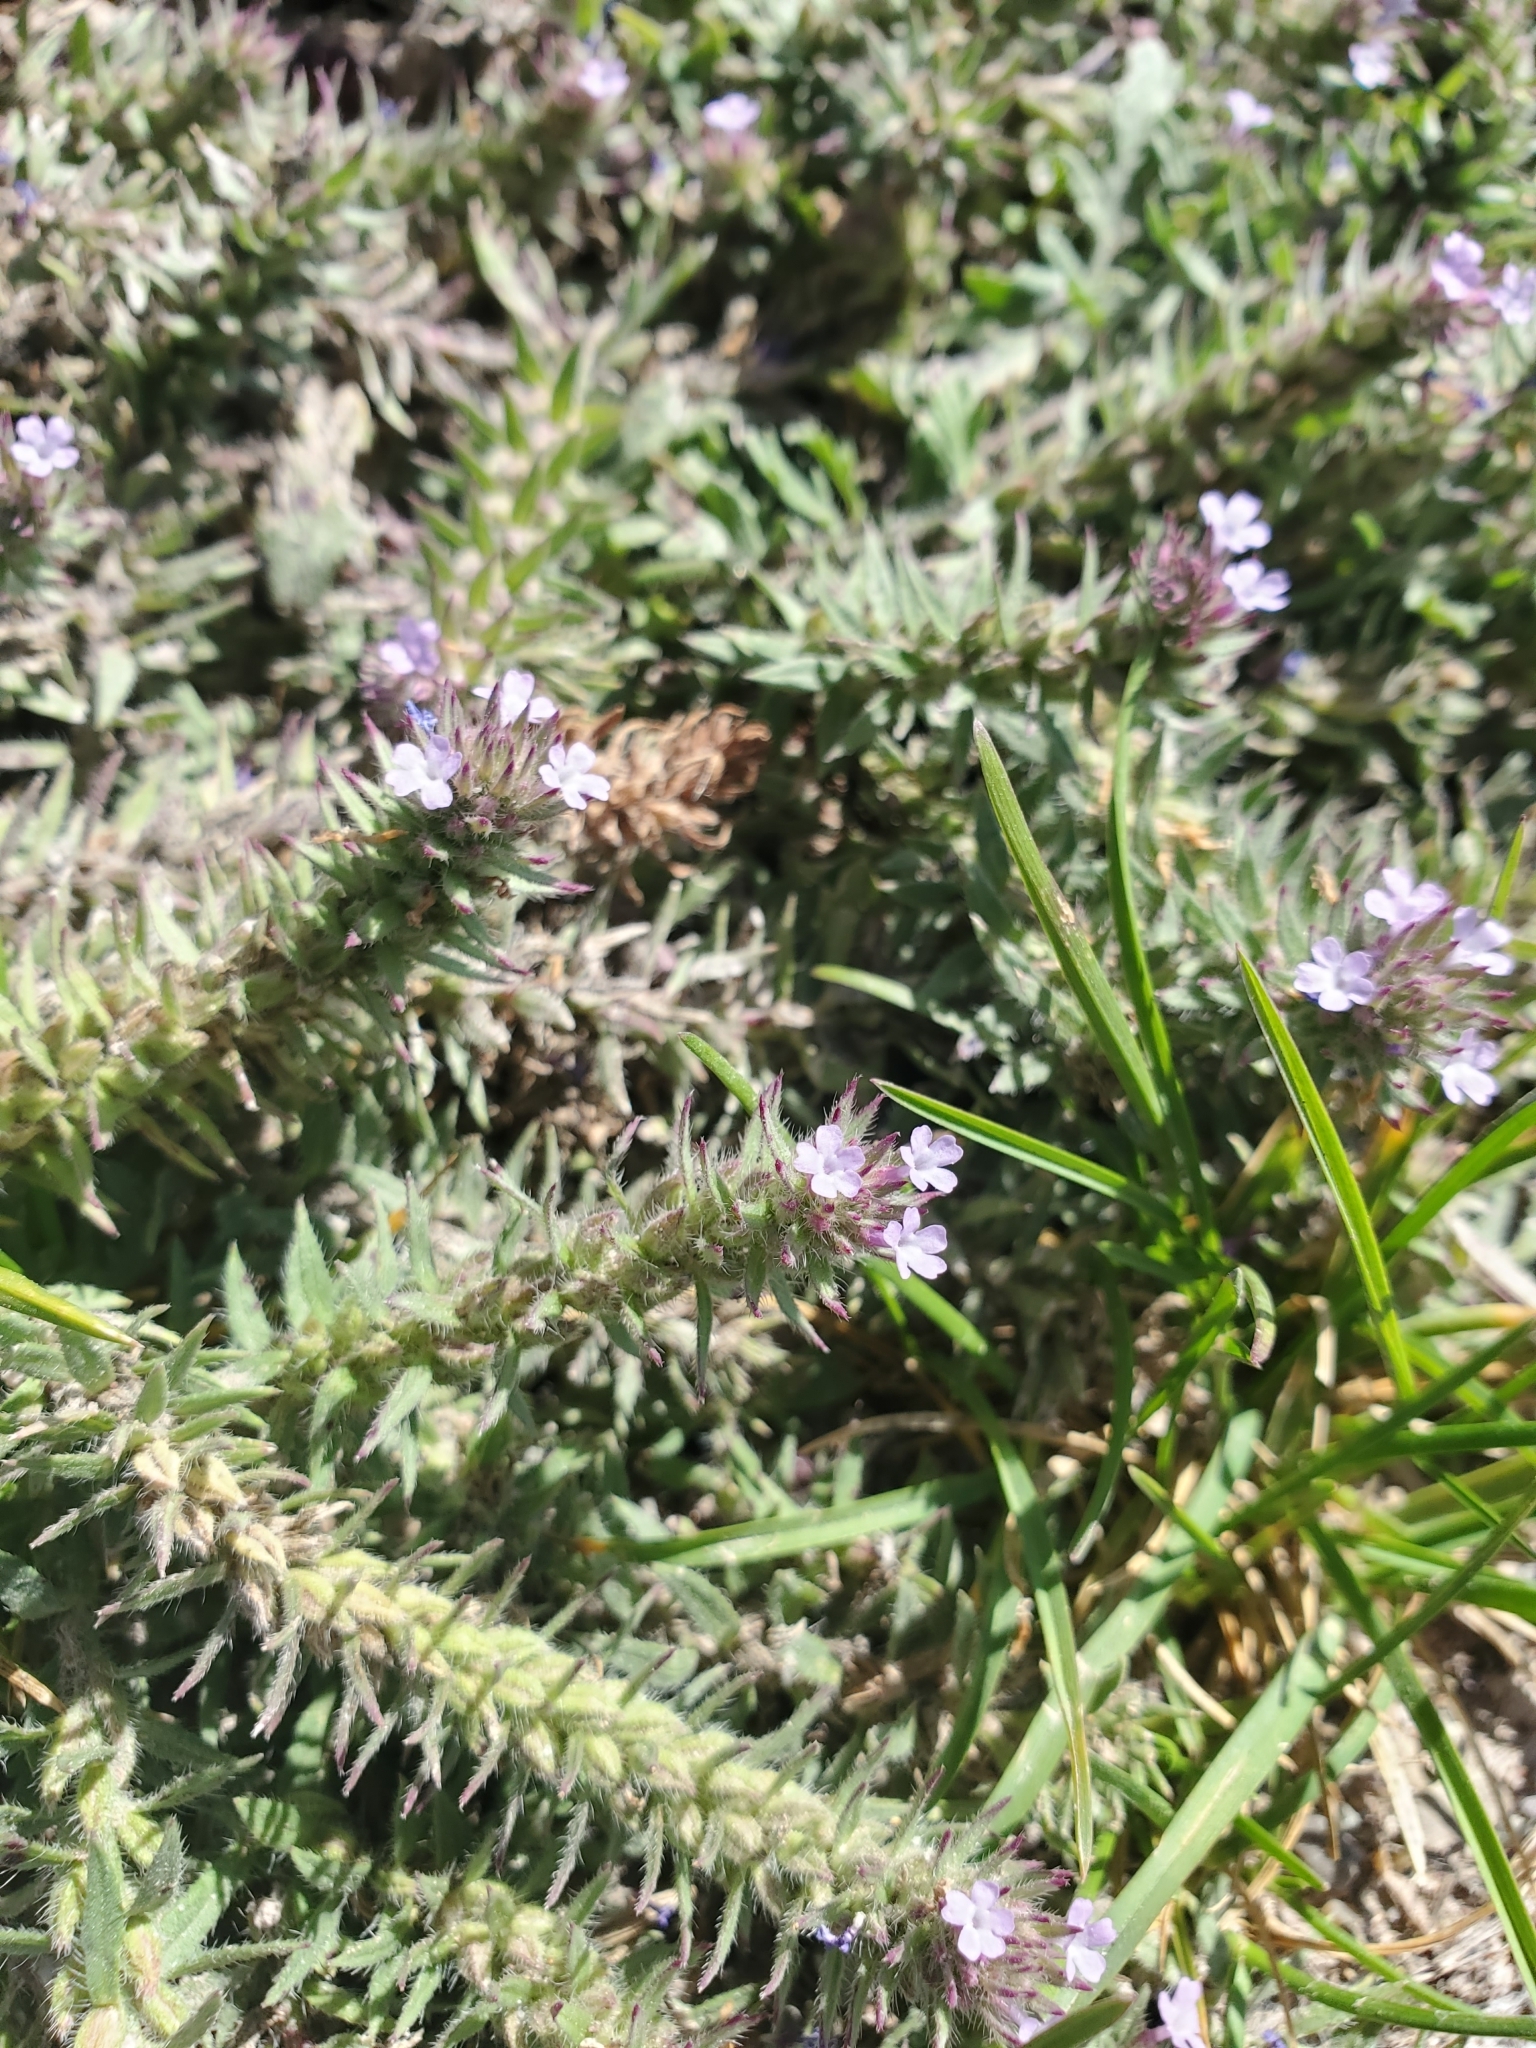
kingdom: Plantae
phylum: Tracheophyta
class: Magnoliopsida
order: Lamiales
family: Verbenaceae
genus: Verbena
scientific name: Verbena bracteata
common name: Bracted vervain
